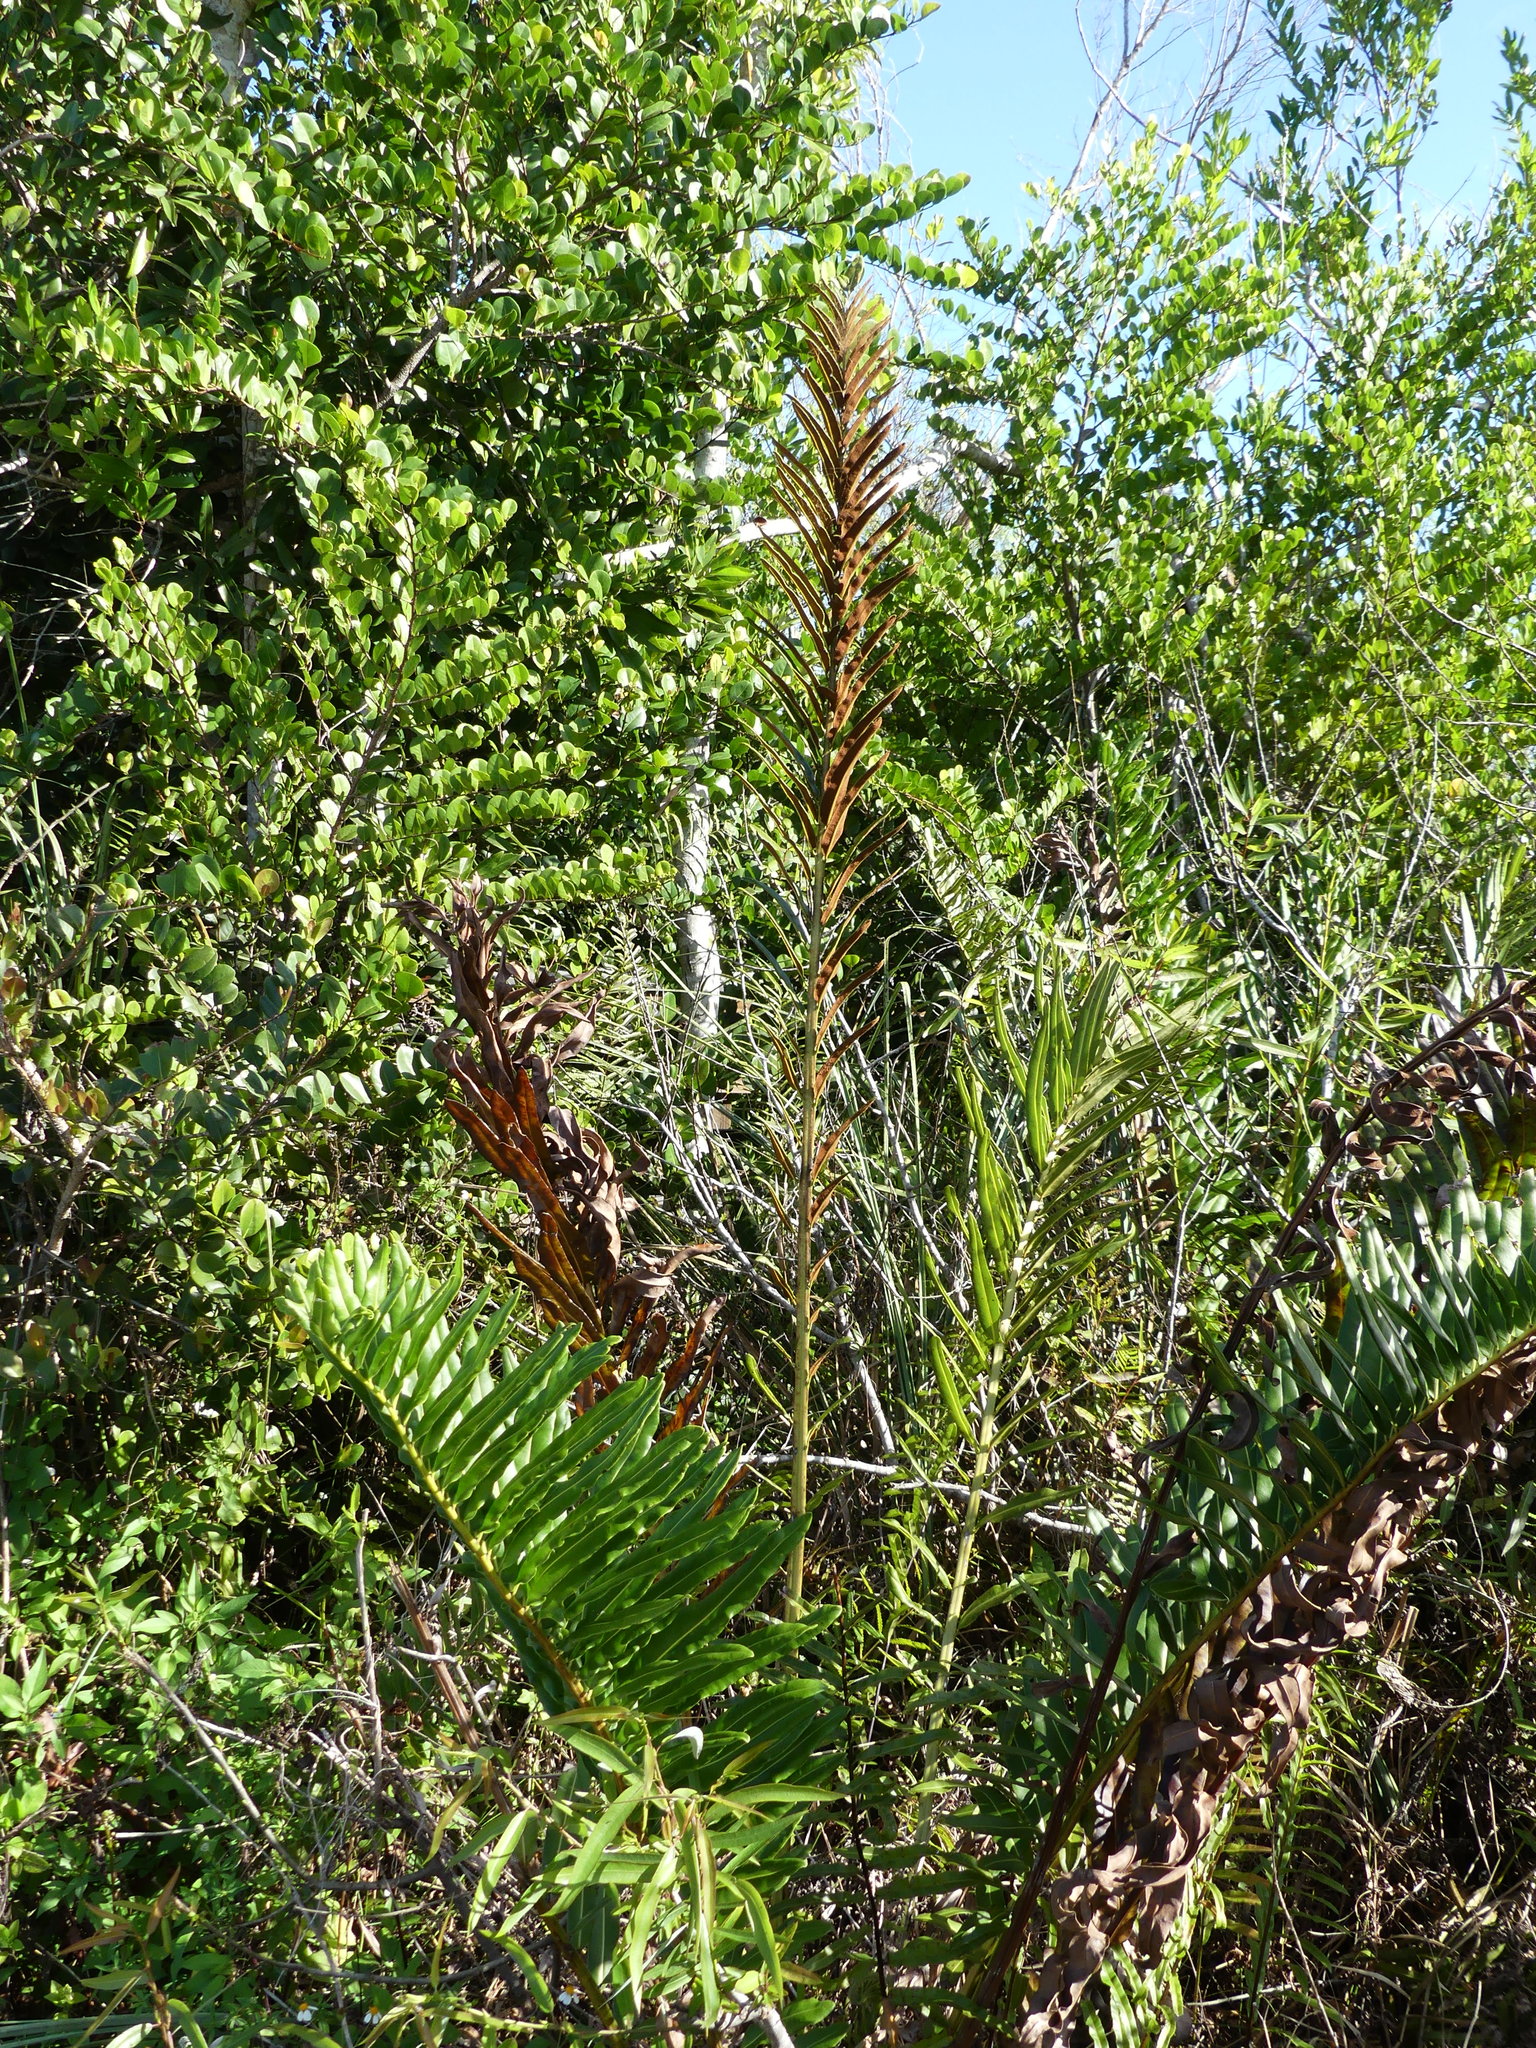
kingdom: Plantae
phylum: Tracheophyta
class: Polypodiopsida
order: Polypodiales
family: Pteridaceae
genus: Acrostichum
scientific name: Acrostichum danaeifolium
